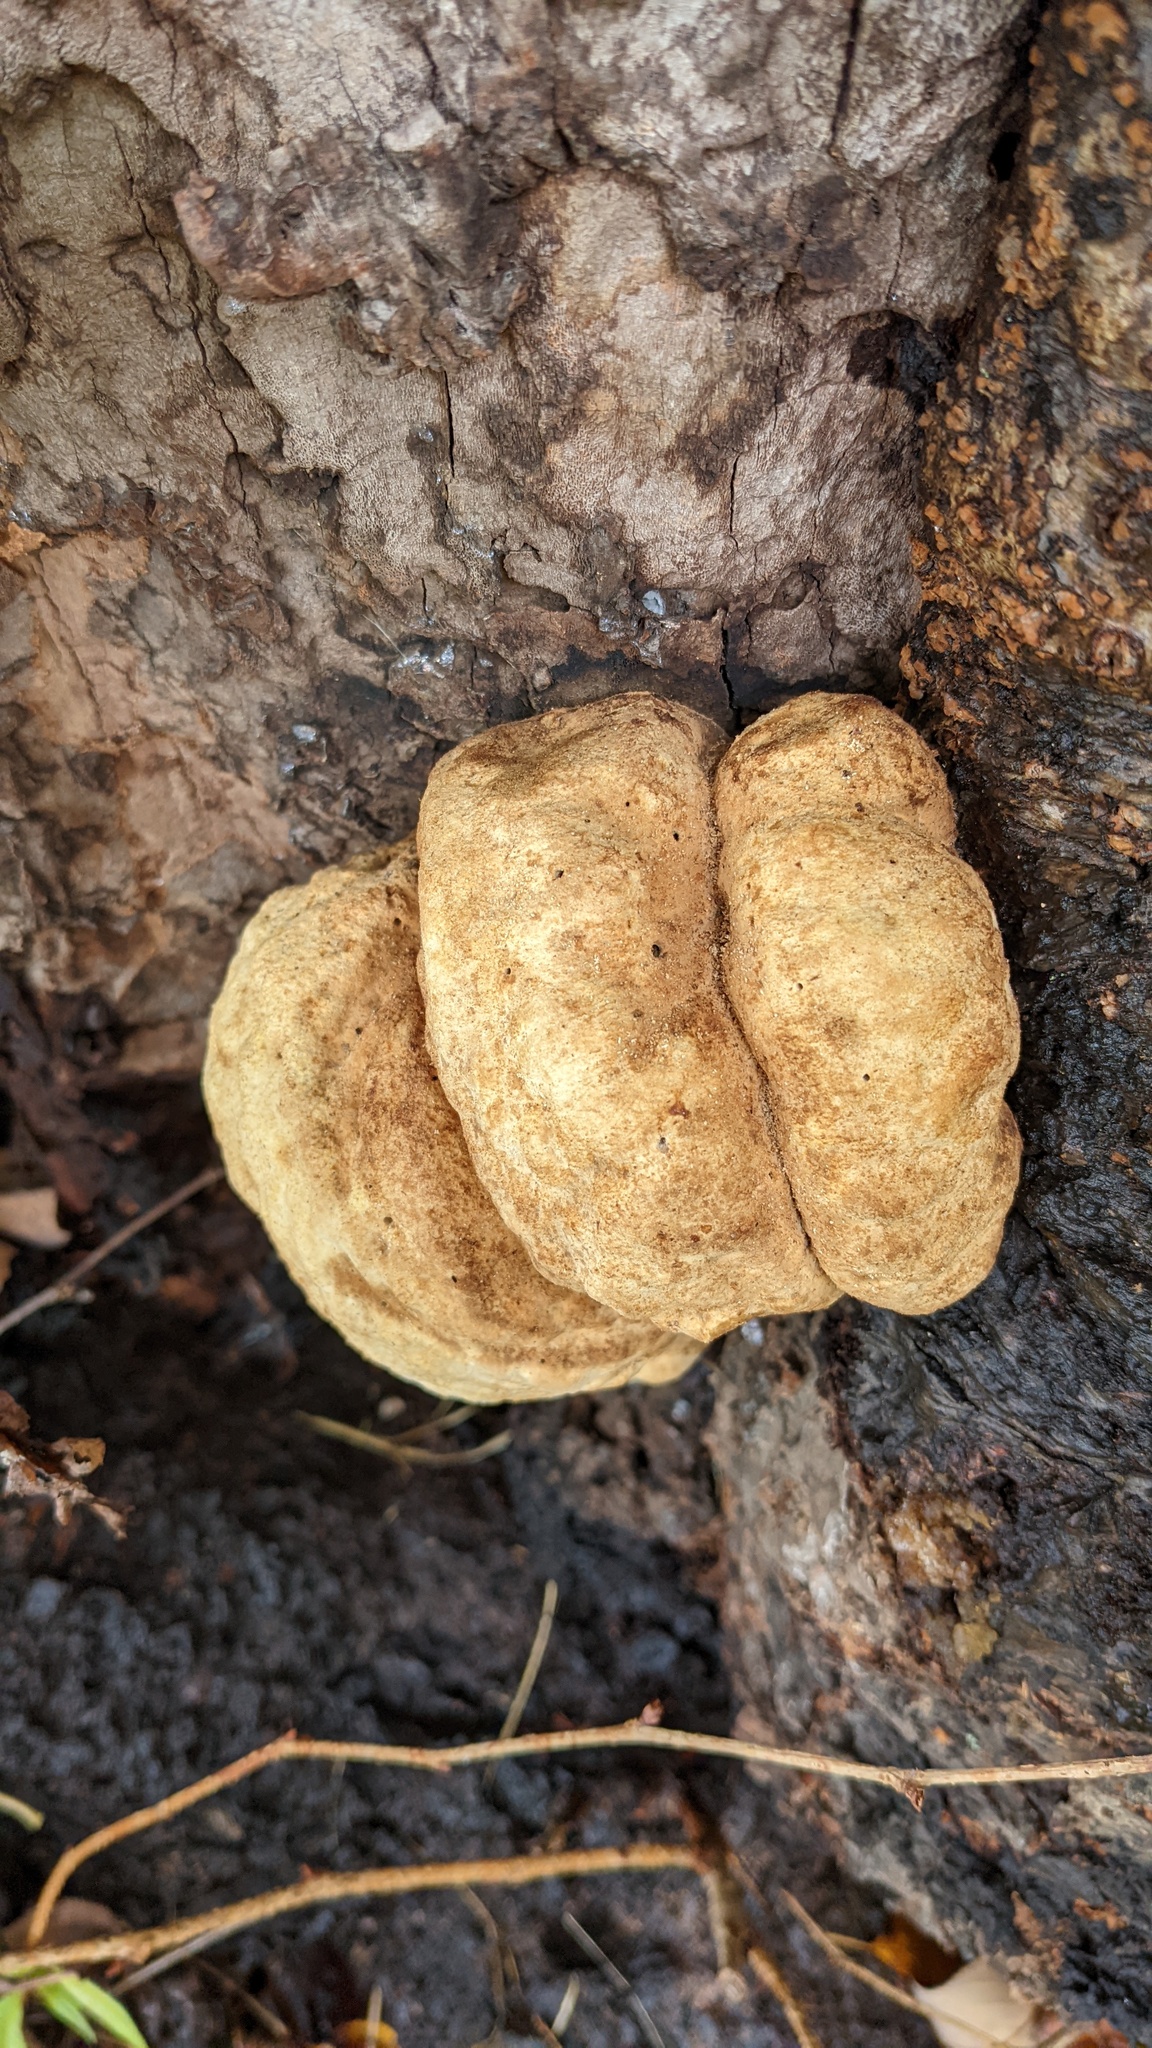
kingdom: Fungi
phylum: Basidiomycota
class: Agaricomycetes
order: Polyporales
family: Laetiporaceae
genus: Laetiporus
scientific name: Laetiporus sulphureus
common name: Chicken of the woods
